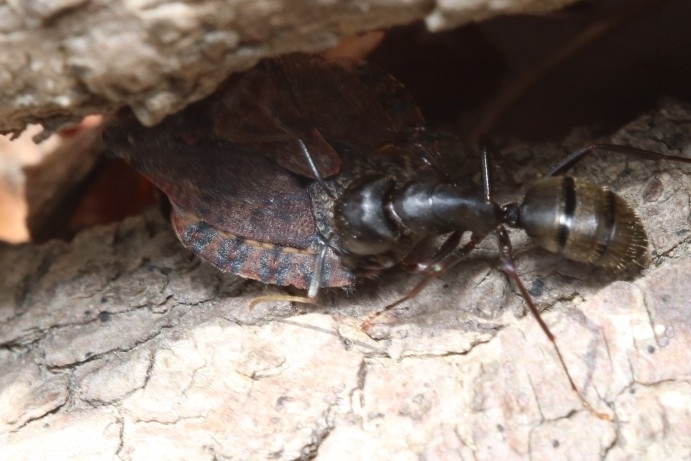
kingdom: Animalia
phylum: Arthropoda
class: Insecta
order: Hymenoptera
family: Formicidae
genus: Camponotus
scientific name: Camponotus pennsylvanicus
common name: Black carpenter ant
